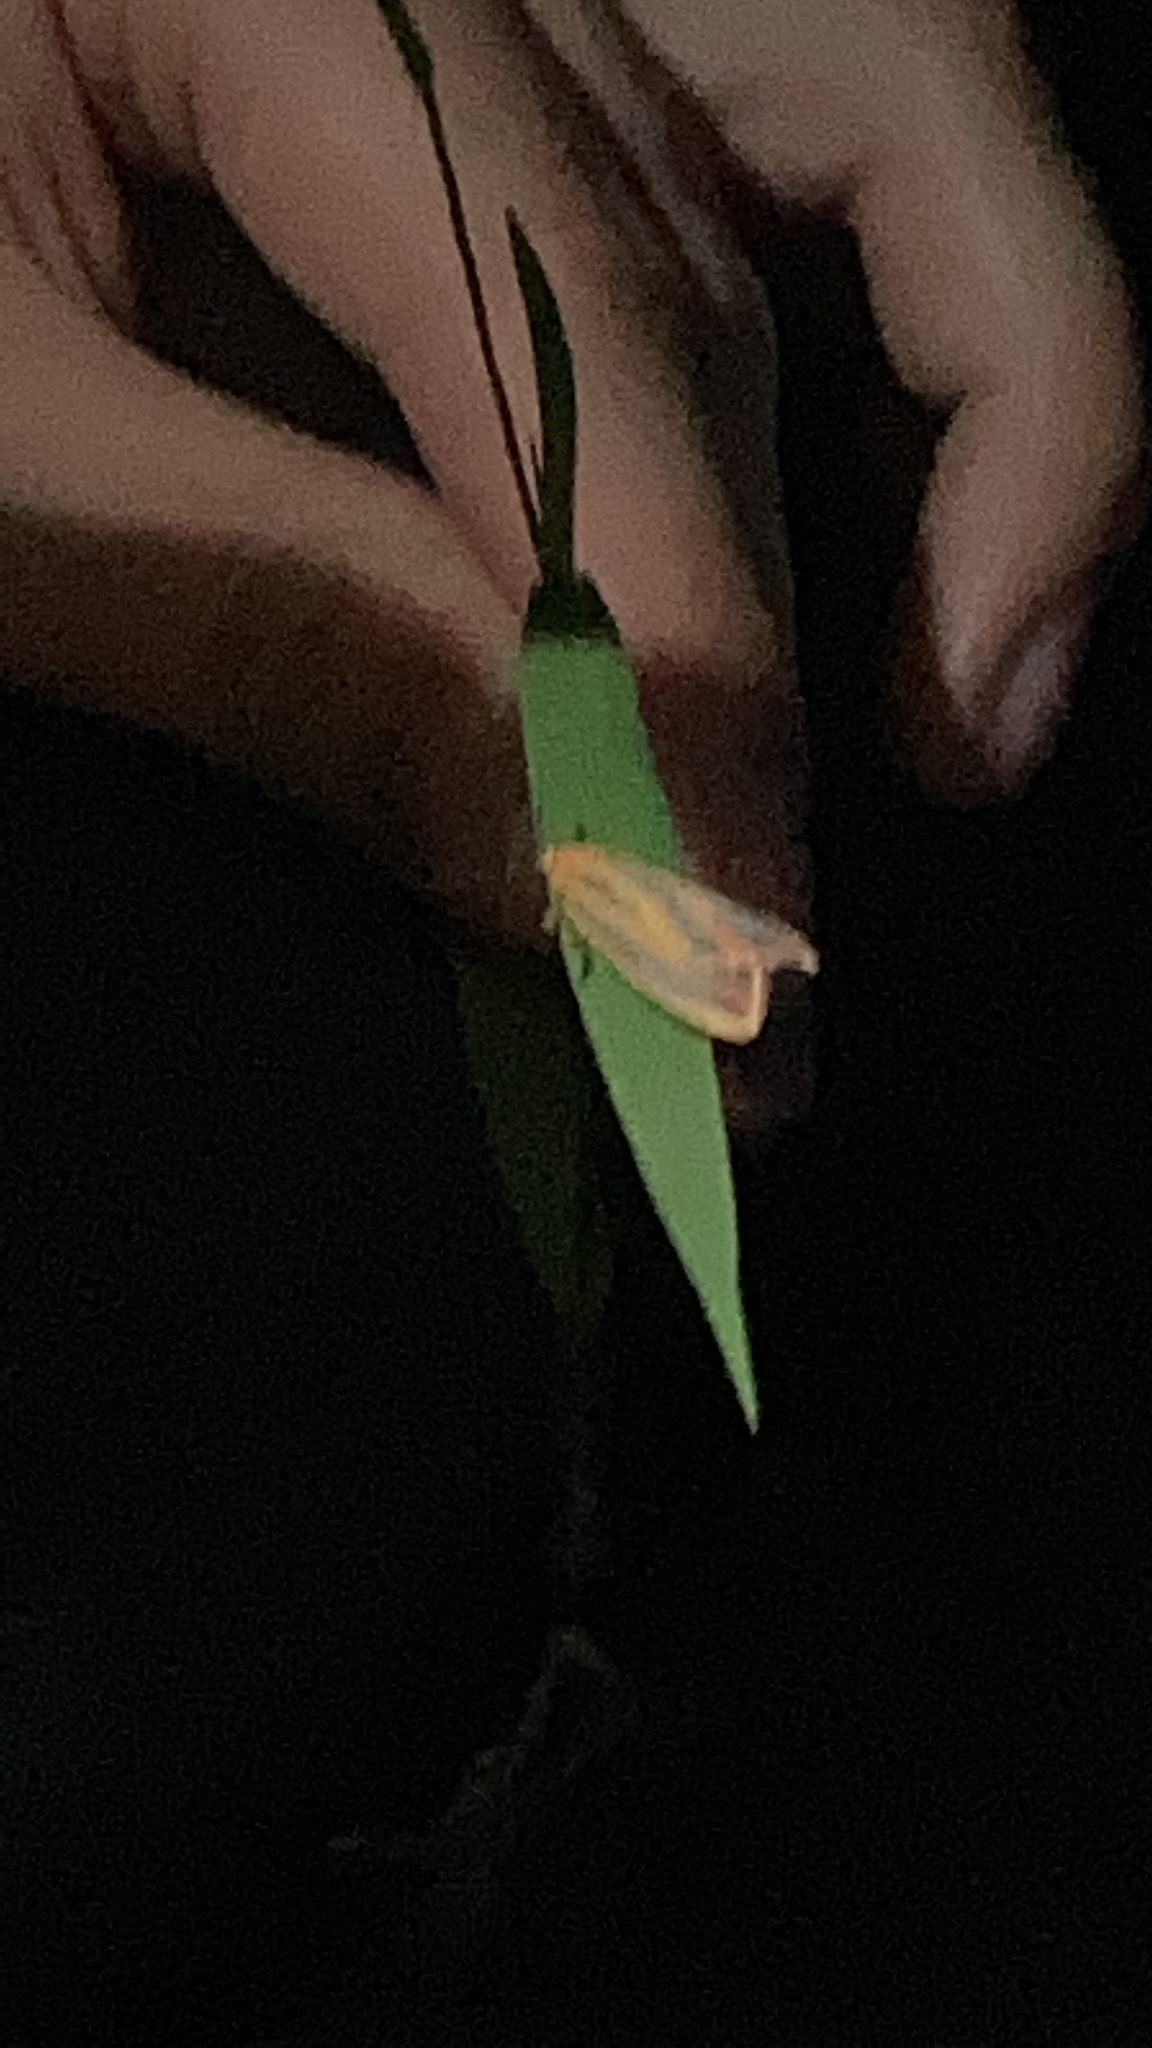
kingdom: Animalia
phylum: Arthropoda
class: Insecta
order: Lepidoptera
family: Erebidae
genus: Hypoprepia
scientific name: Hypoprepia fucosa
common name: Painted lichen moth
